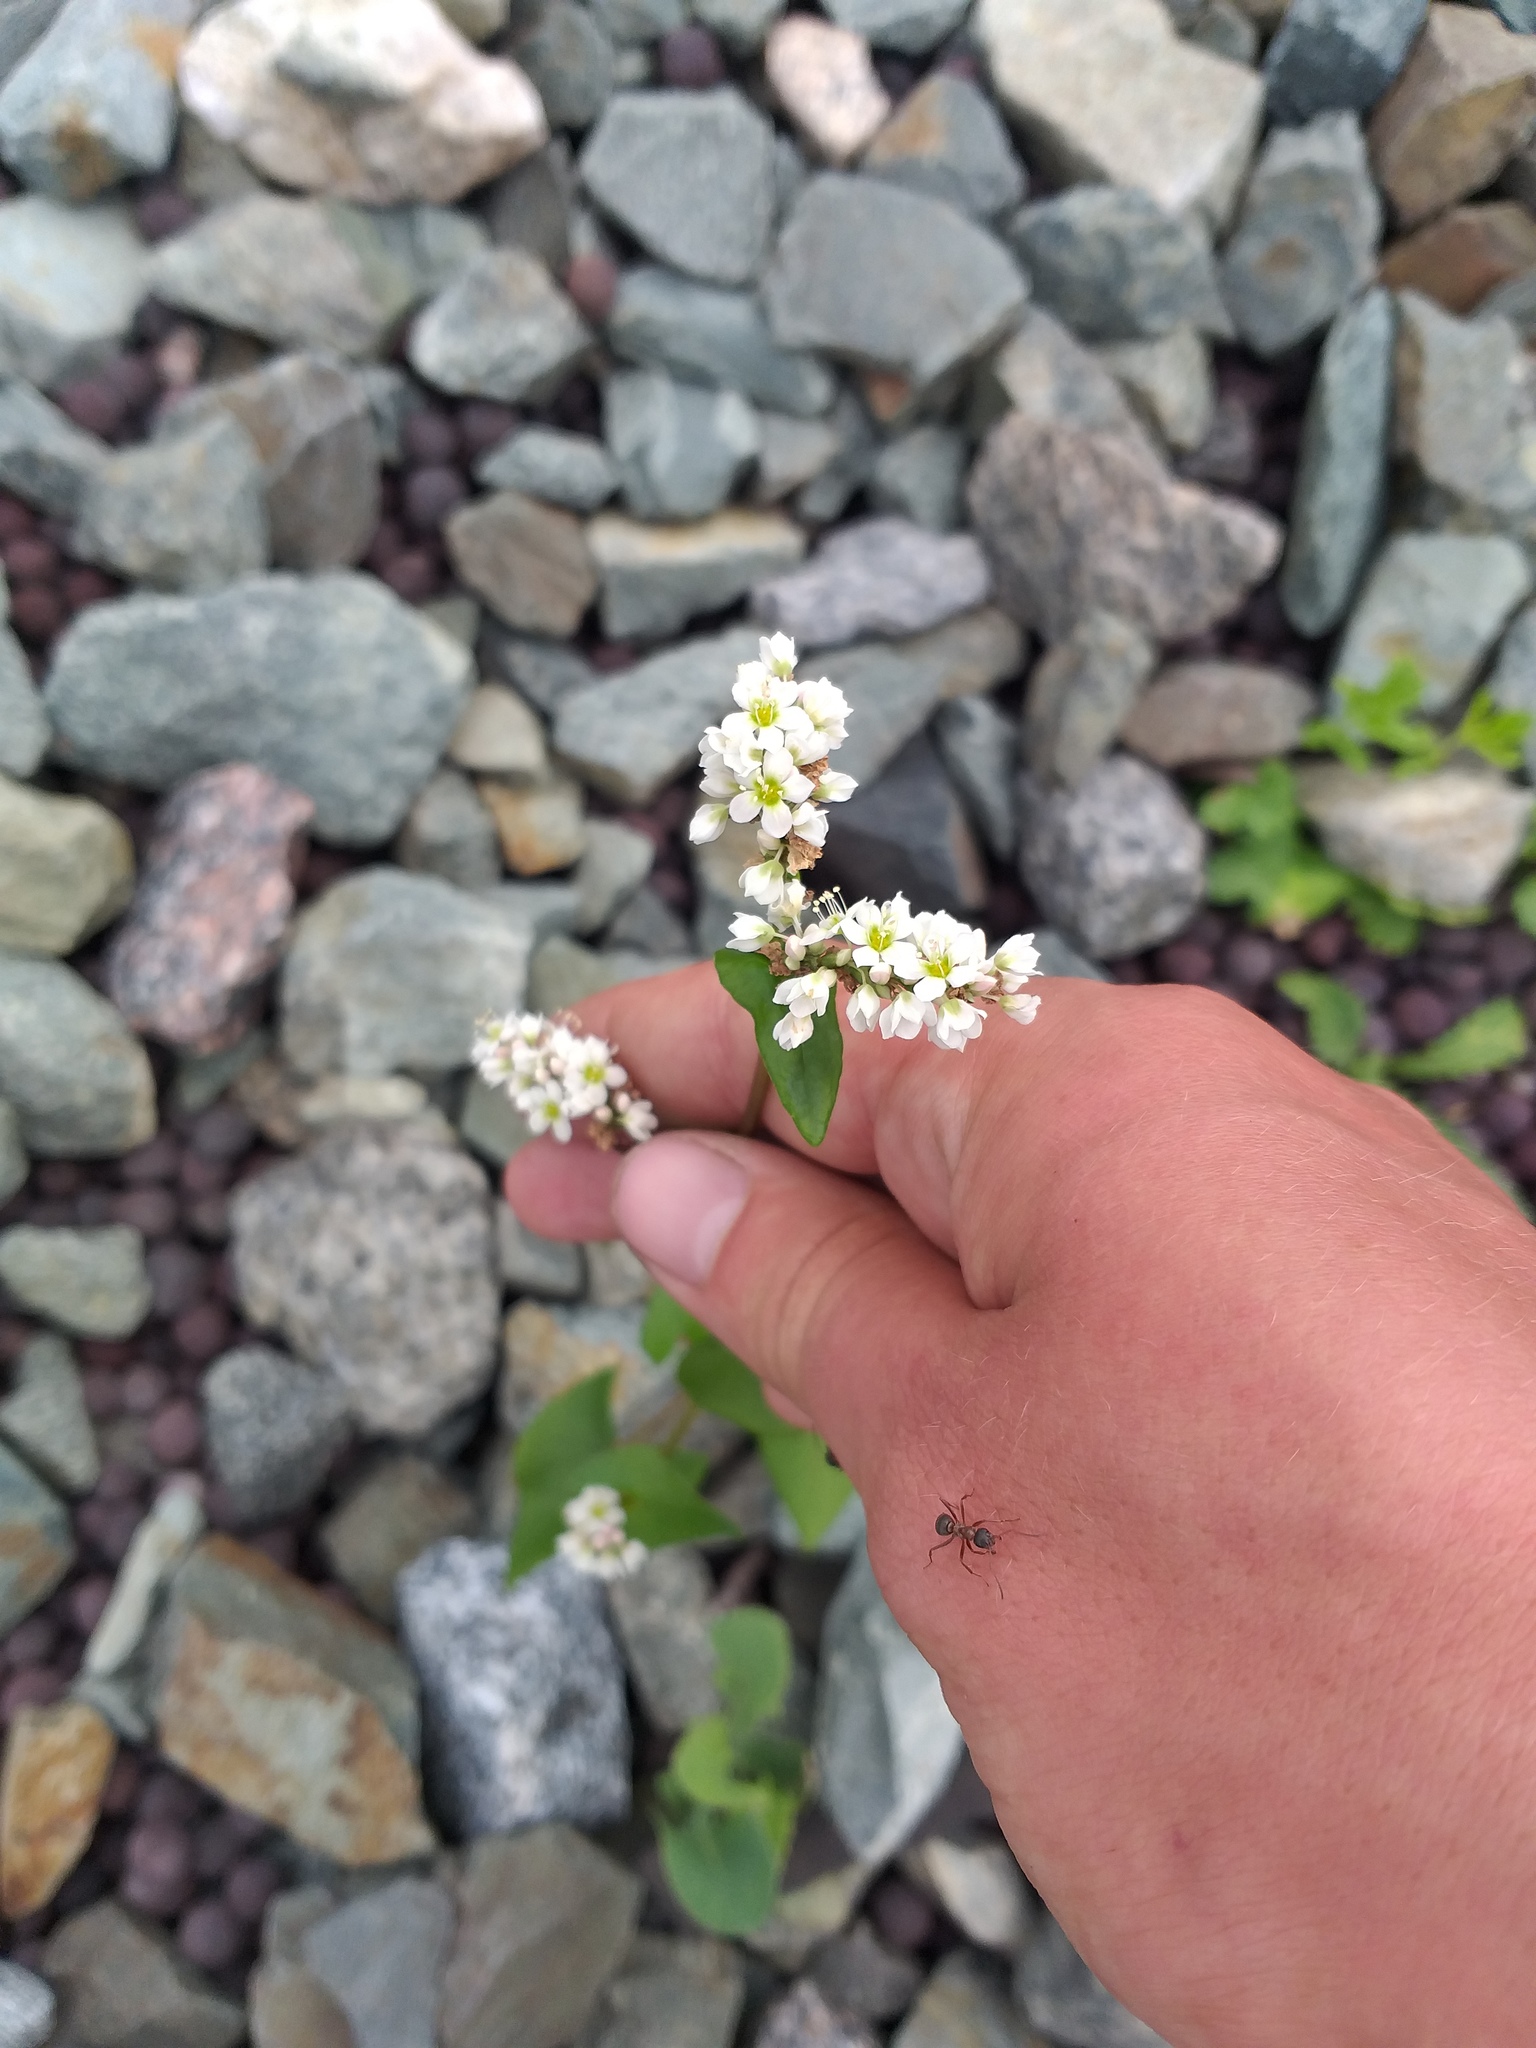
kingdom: Plantae
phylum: Tracheophyta
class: Magnoliopsida
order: Caryophyllales
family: Polygonaceae
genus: Fagopyrum
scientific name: Fagopyrum esculentum
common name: Buckwheat
